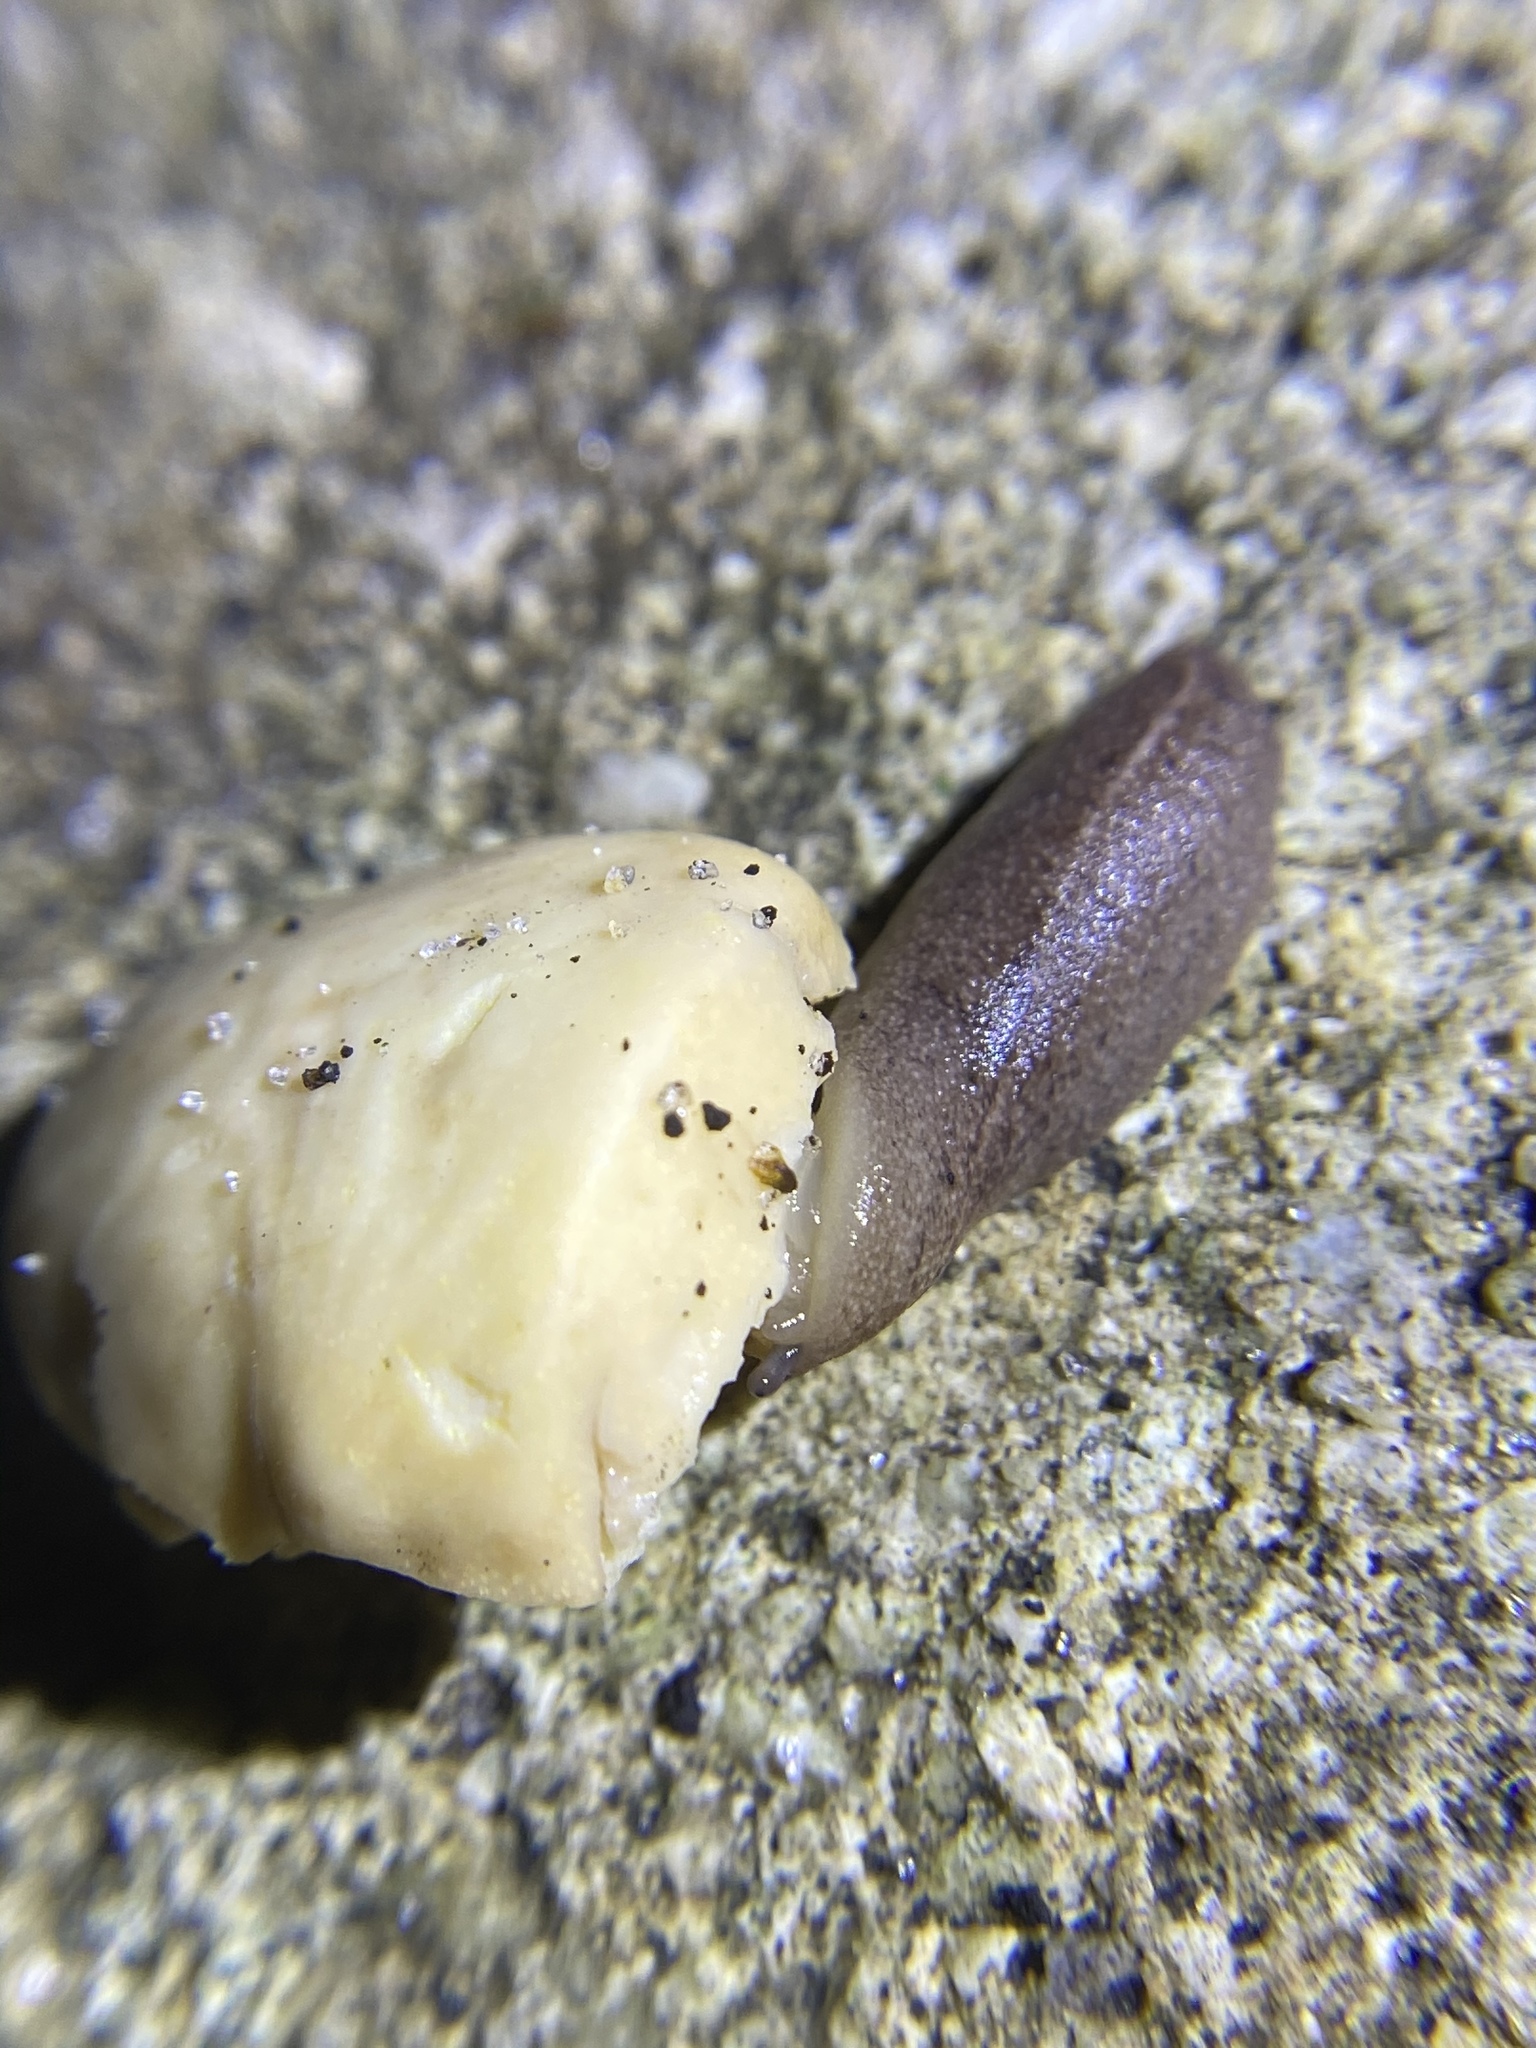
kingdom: Animalia
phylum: Mollusca
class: Gastropoda
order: Systellommatophora
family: Veronicellidae
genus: Leidyula
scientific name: Leidyula floridana
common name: Florida leatherleaf
